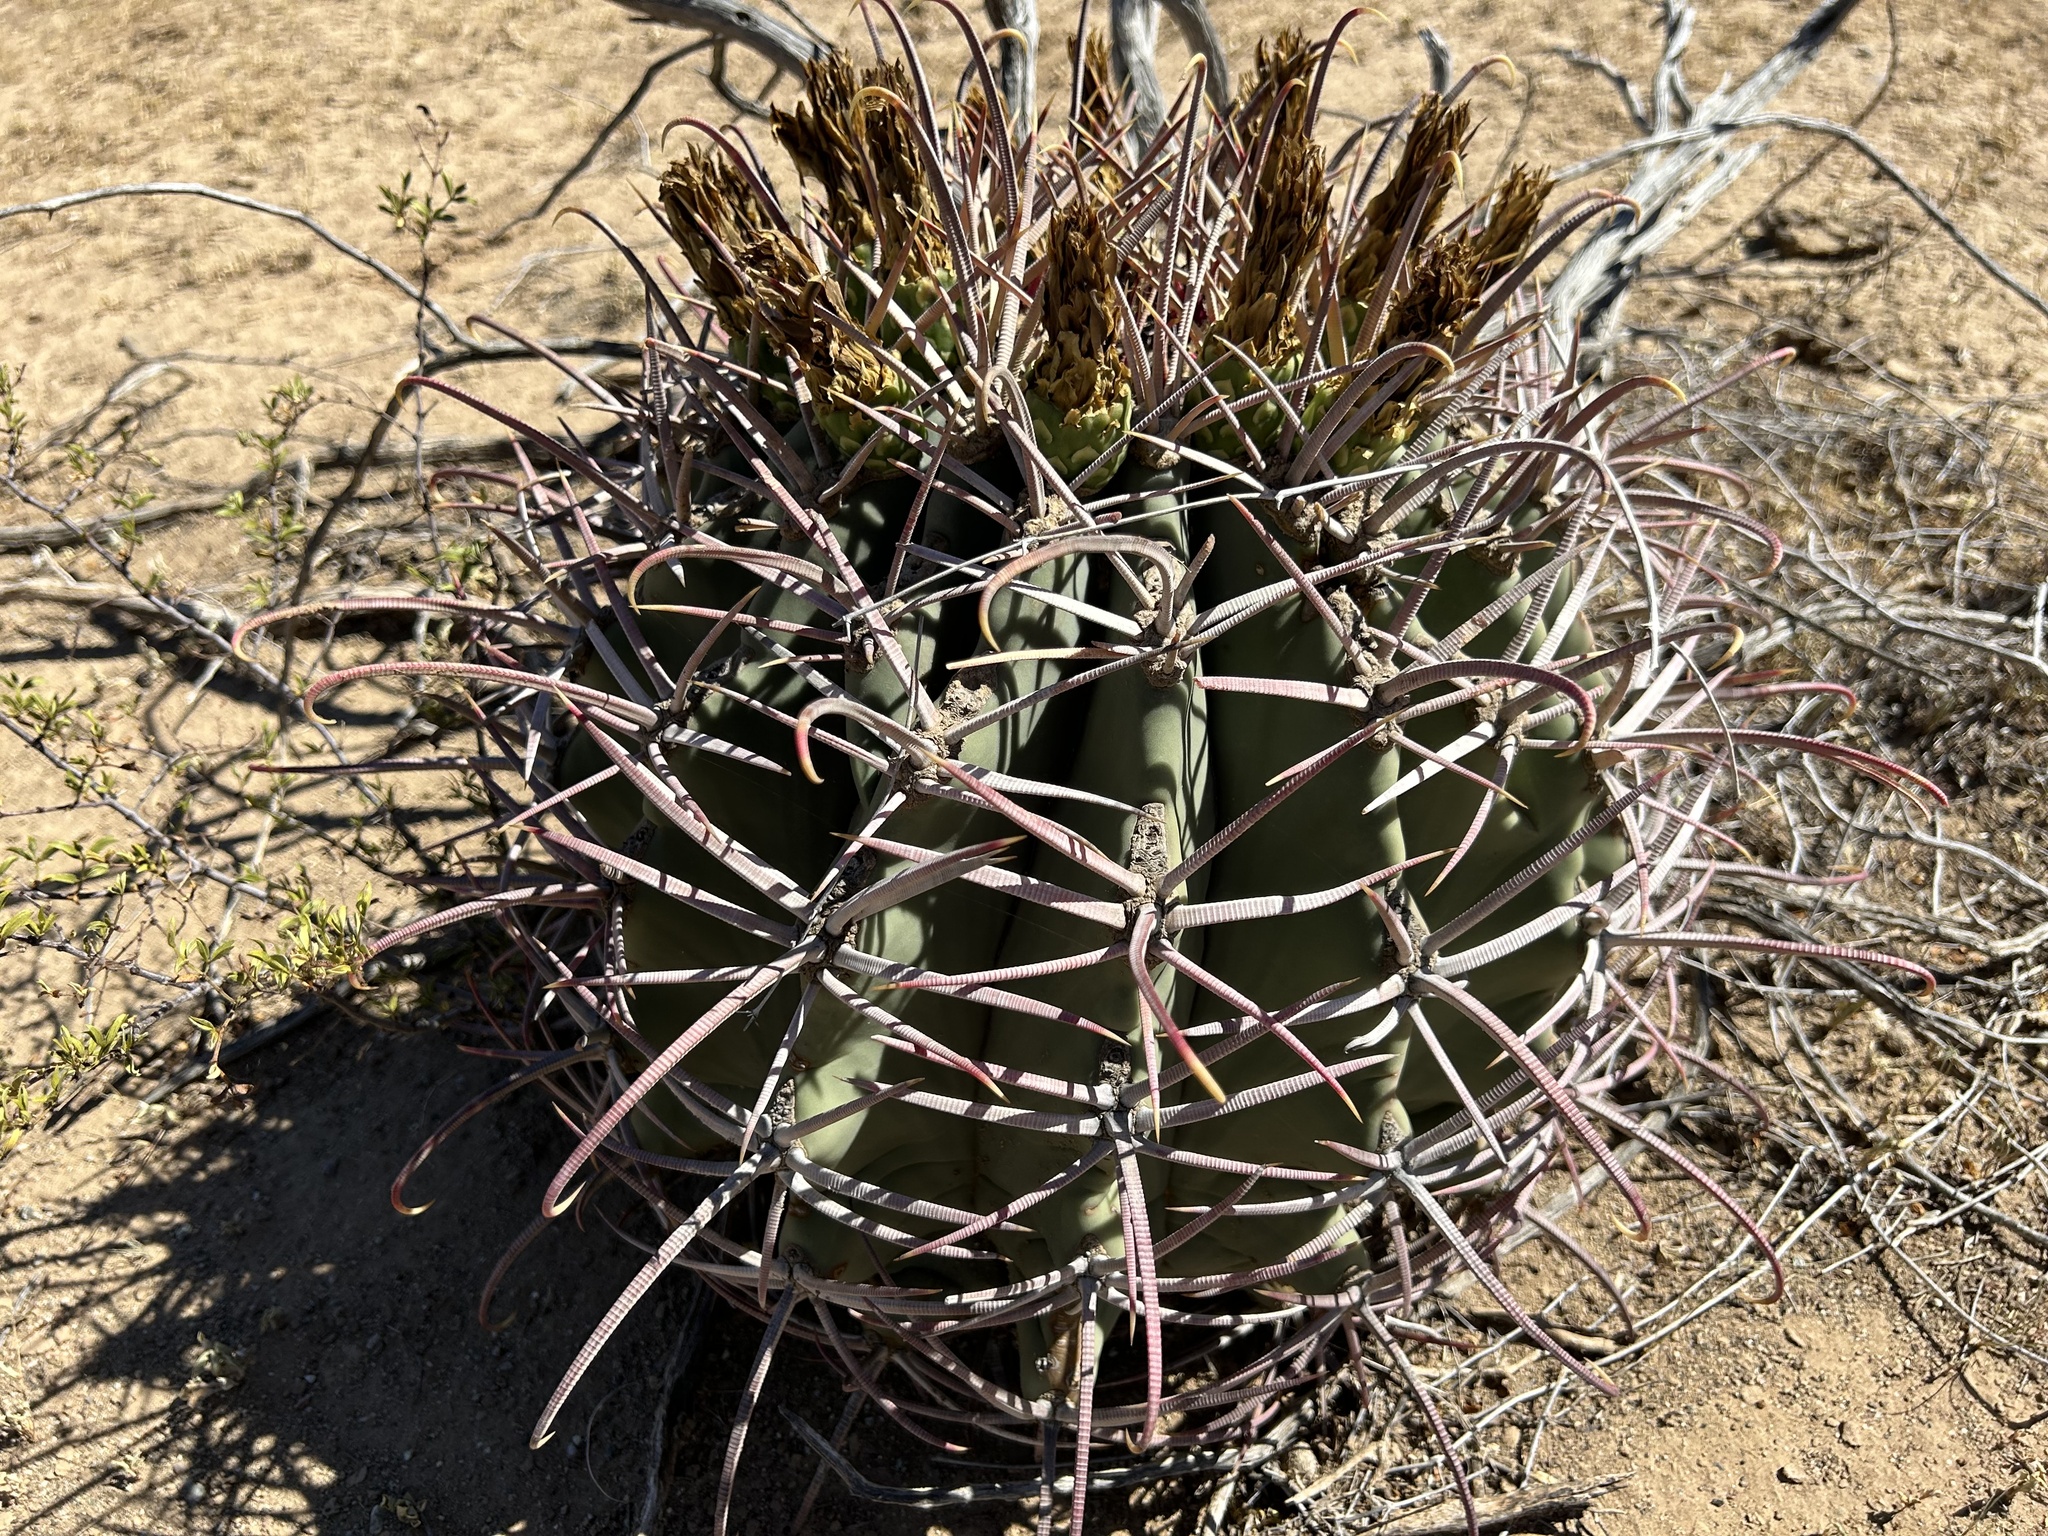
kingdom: Plantae
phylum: Tracheophyta
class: Magnoliopsida
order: Caryophyllales
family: Cactaceae
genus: Ferocactus
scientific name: Ferocactus emoryi
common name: Emory's barrel cactus
